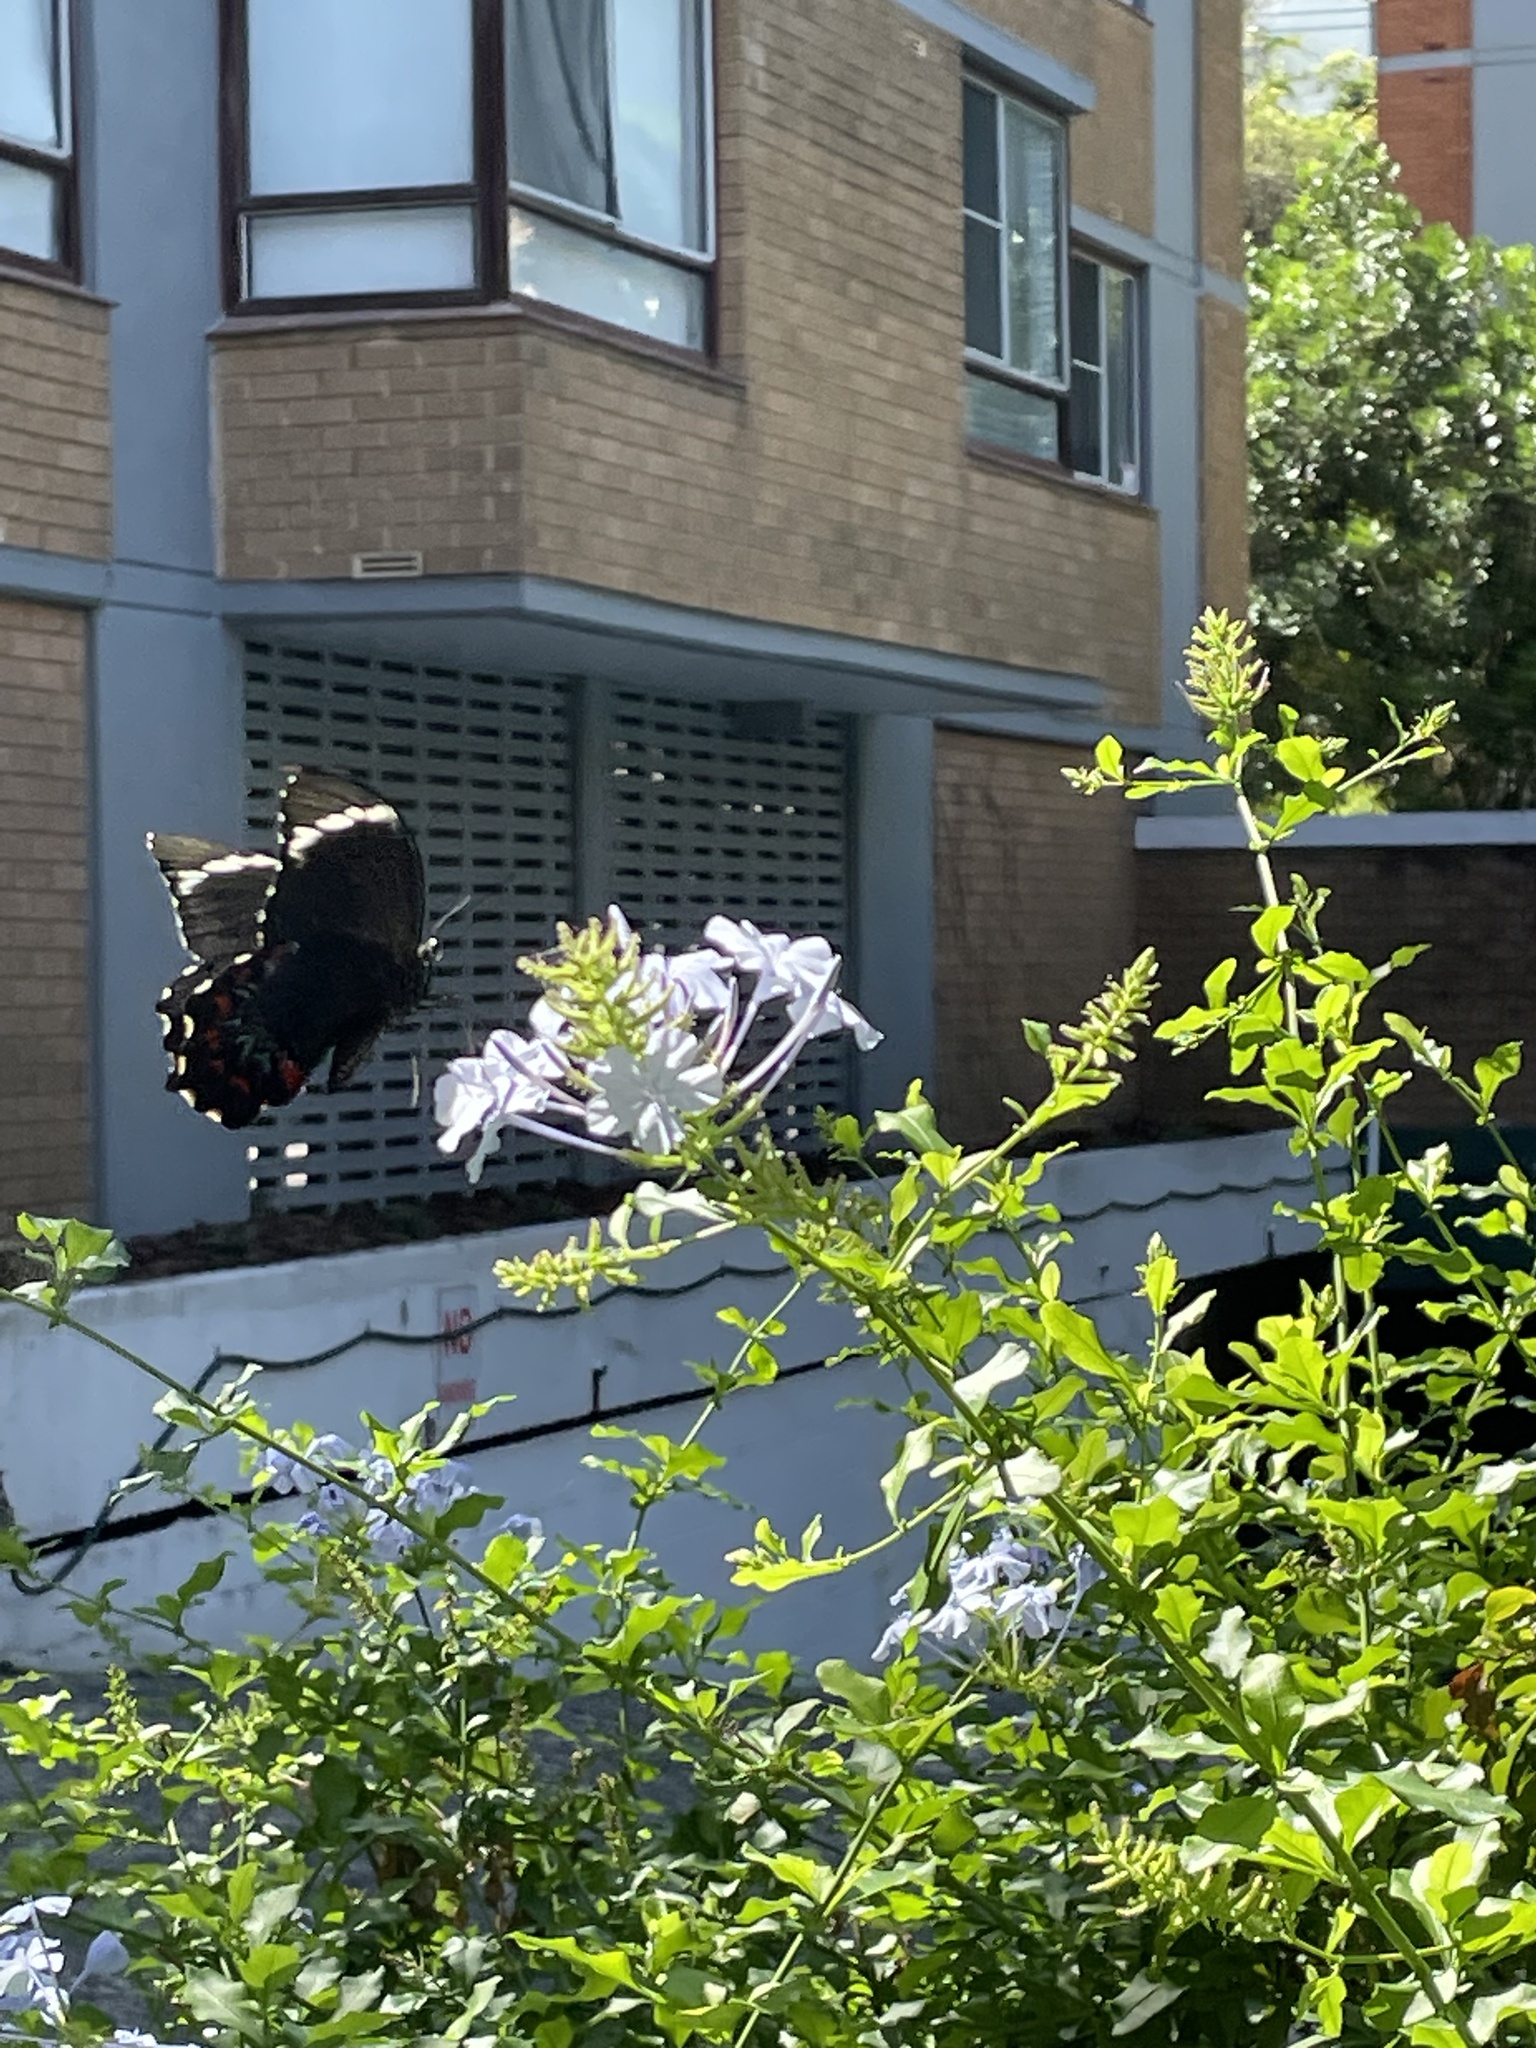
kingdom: Animalia
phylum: Arthropoda
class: Insecta
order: Lepidoptera
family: Papilionidae
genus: Papilio
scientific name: Papilio aegeus
